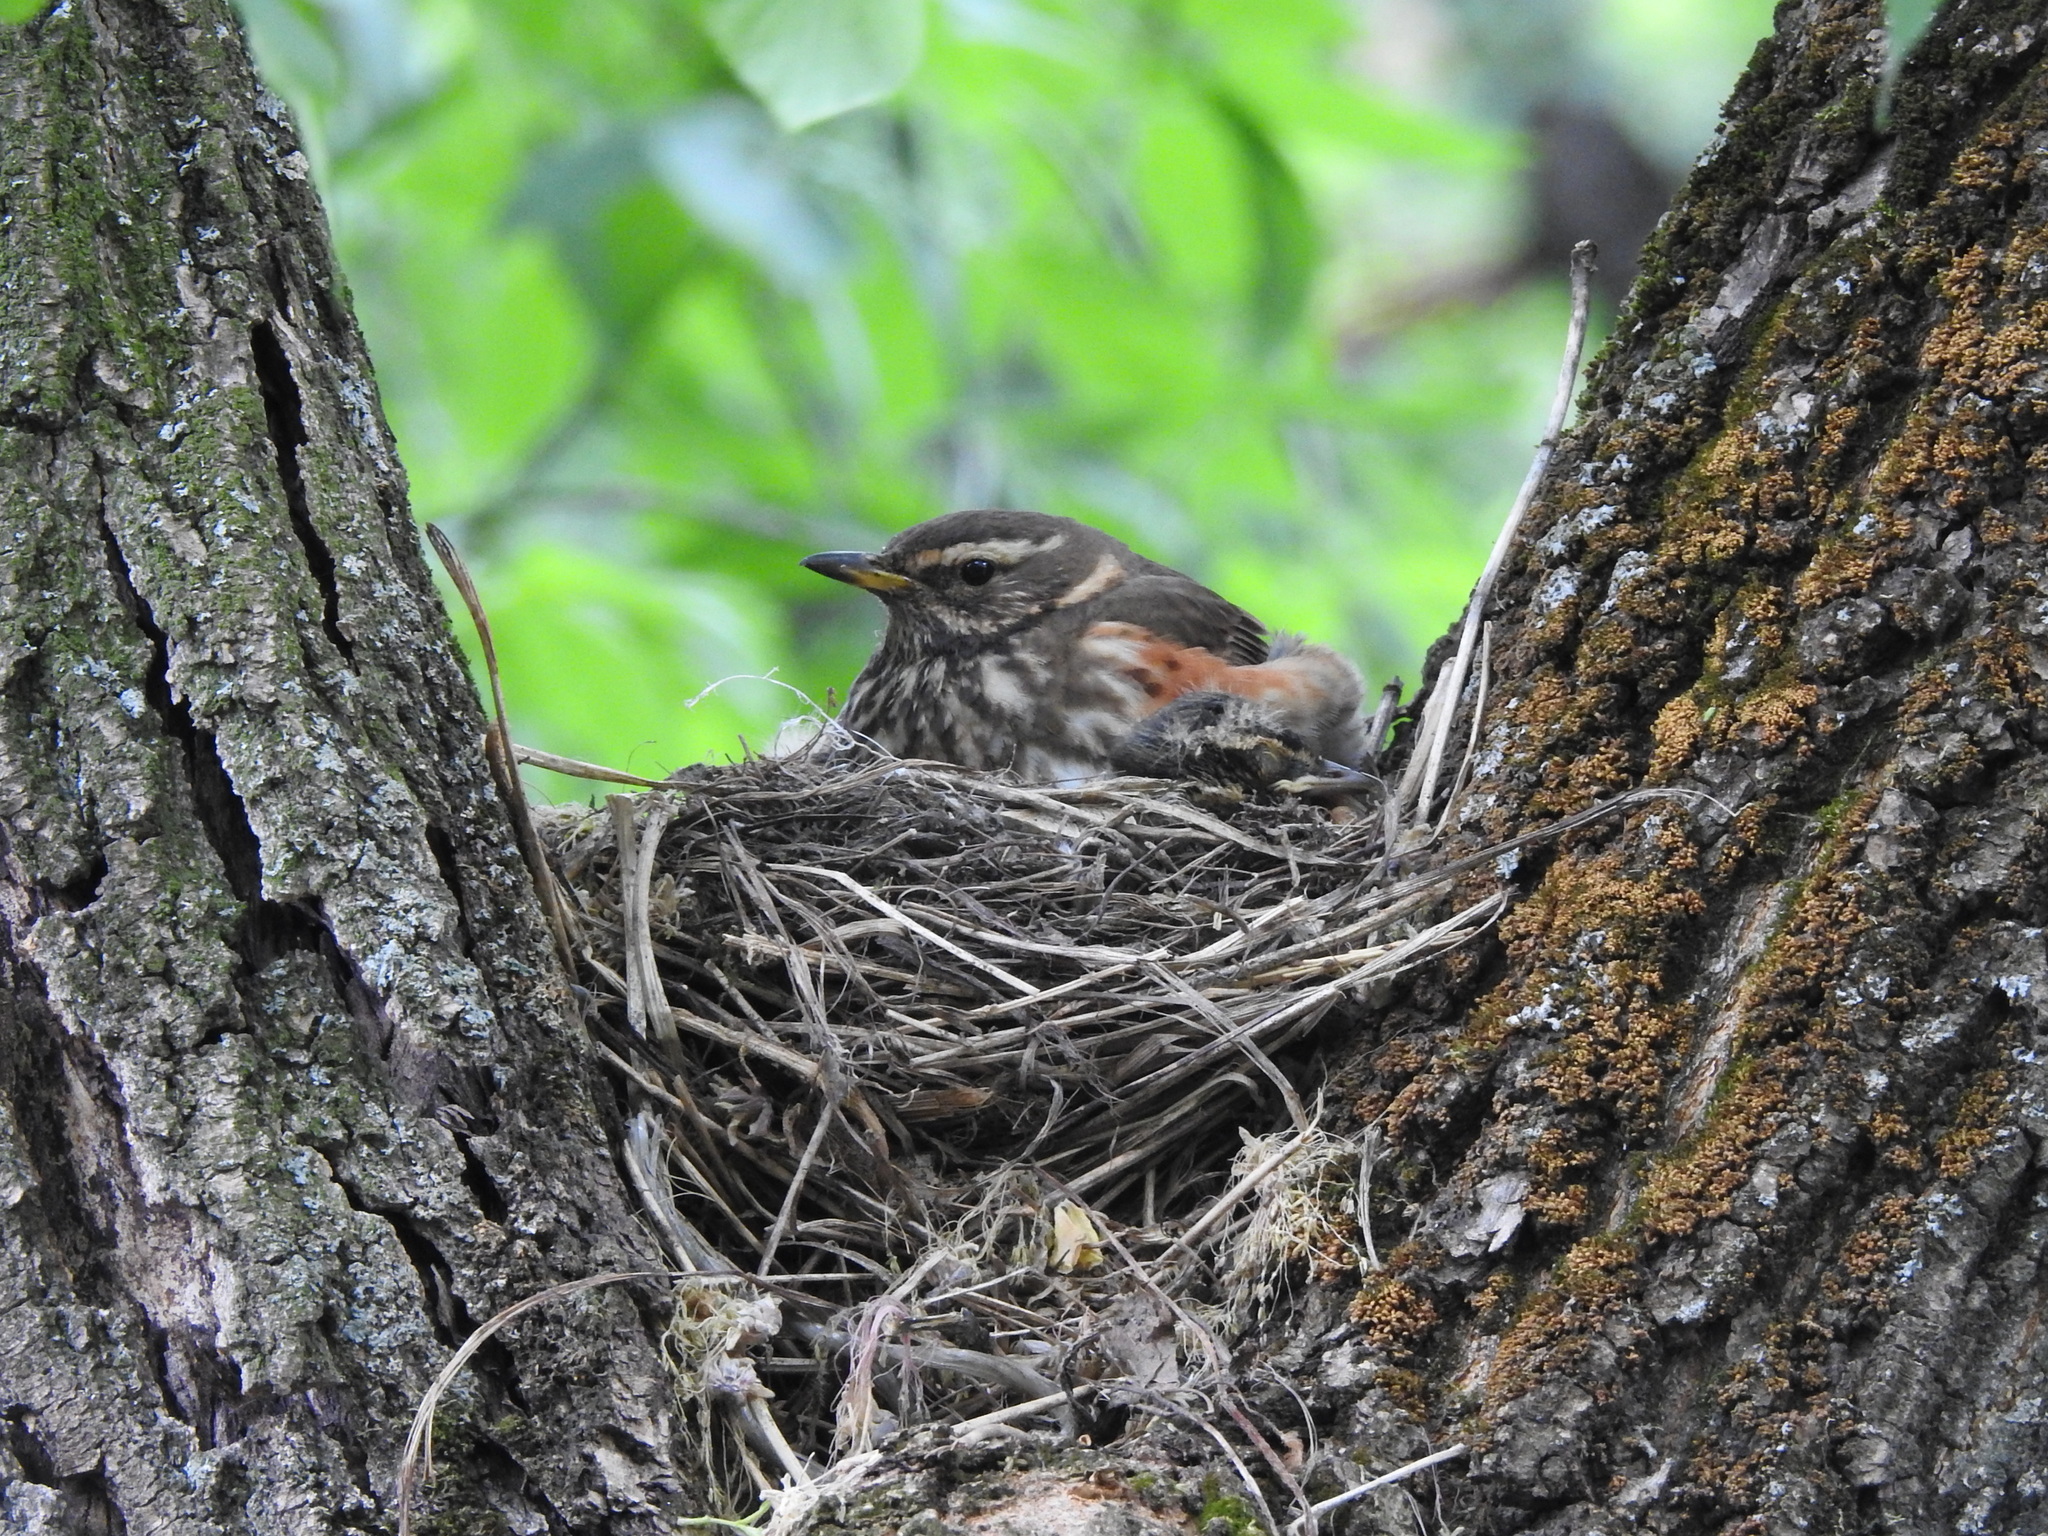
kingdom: Animalia
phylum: Chordata
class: Aves
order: Passeriformes
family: Turdidae
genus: Turdus
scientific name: Turdus iliacus
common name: Redwing
